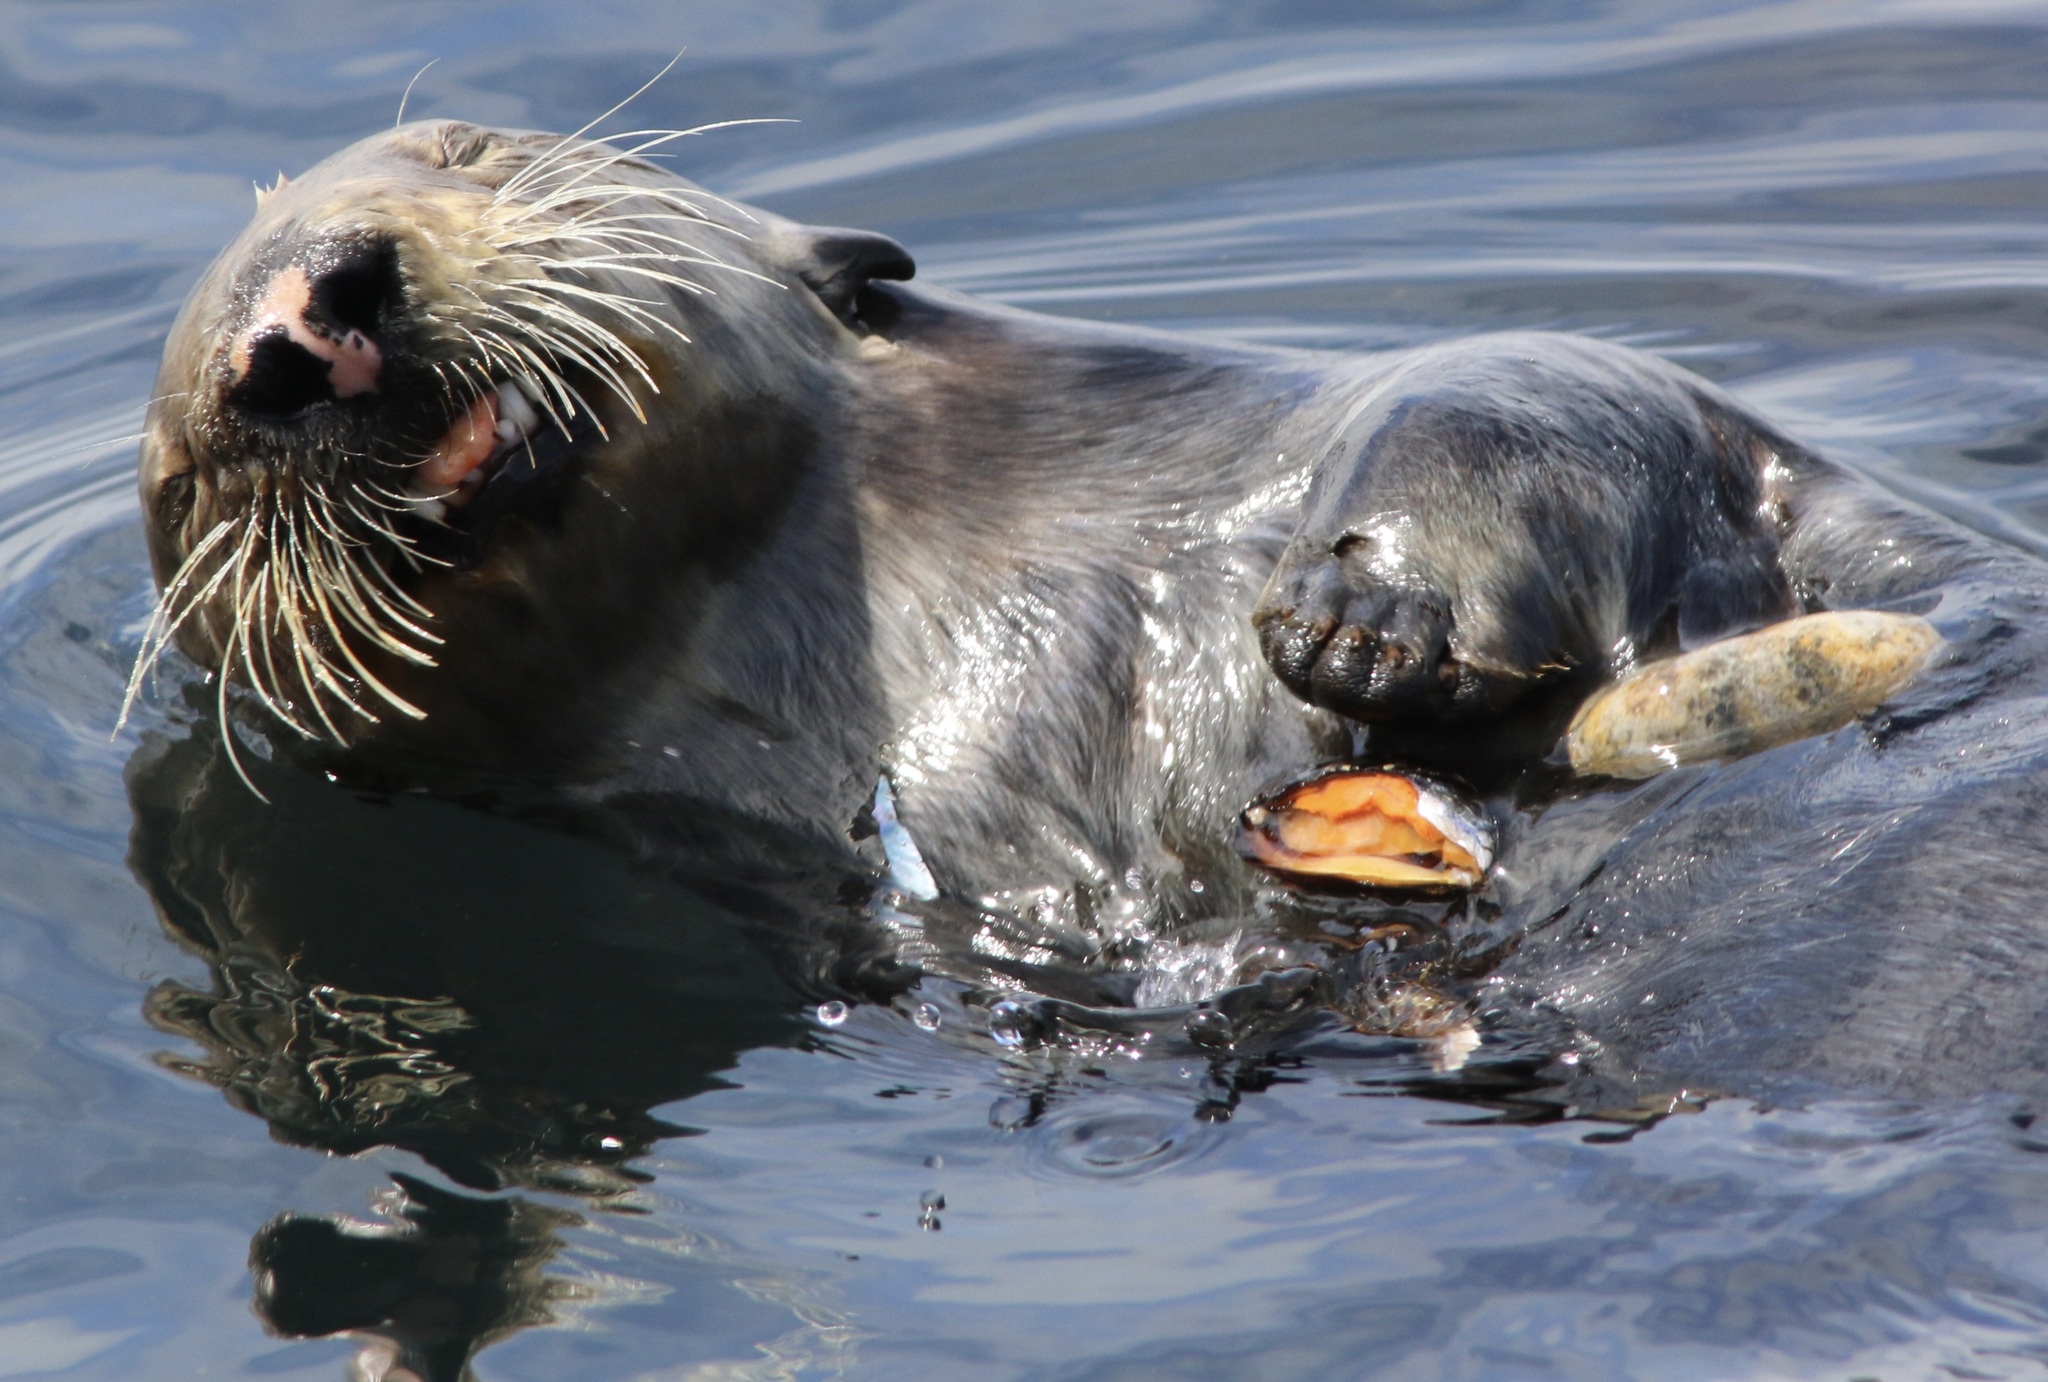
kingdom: Animalia
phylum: Mollusca
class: Bivalvia
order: Mytilida
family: Mytilidae
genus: Mytilus
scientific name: Mytilus californianus
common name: California mussel
